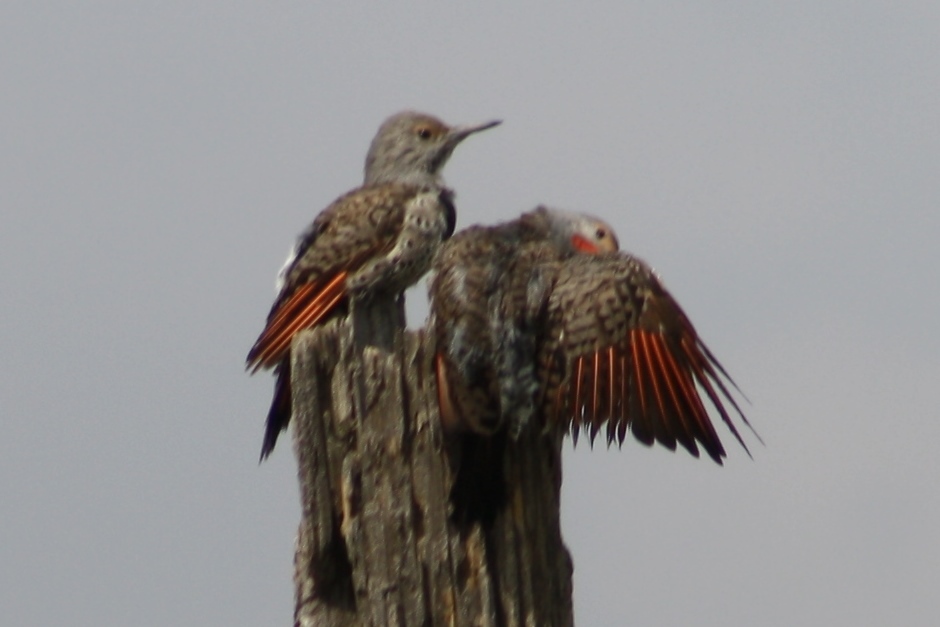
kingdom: Animalia
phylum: Chordata
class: Aves
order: Piciformes
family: Picidae
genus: Colaptes
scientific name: Colaptes auratus
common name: Northern flicker
